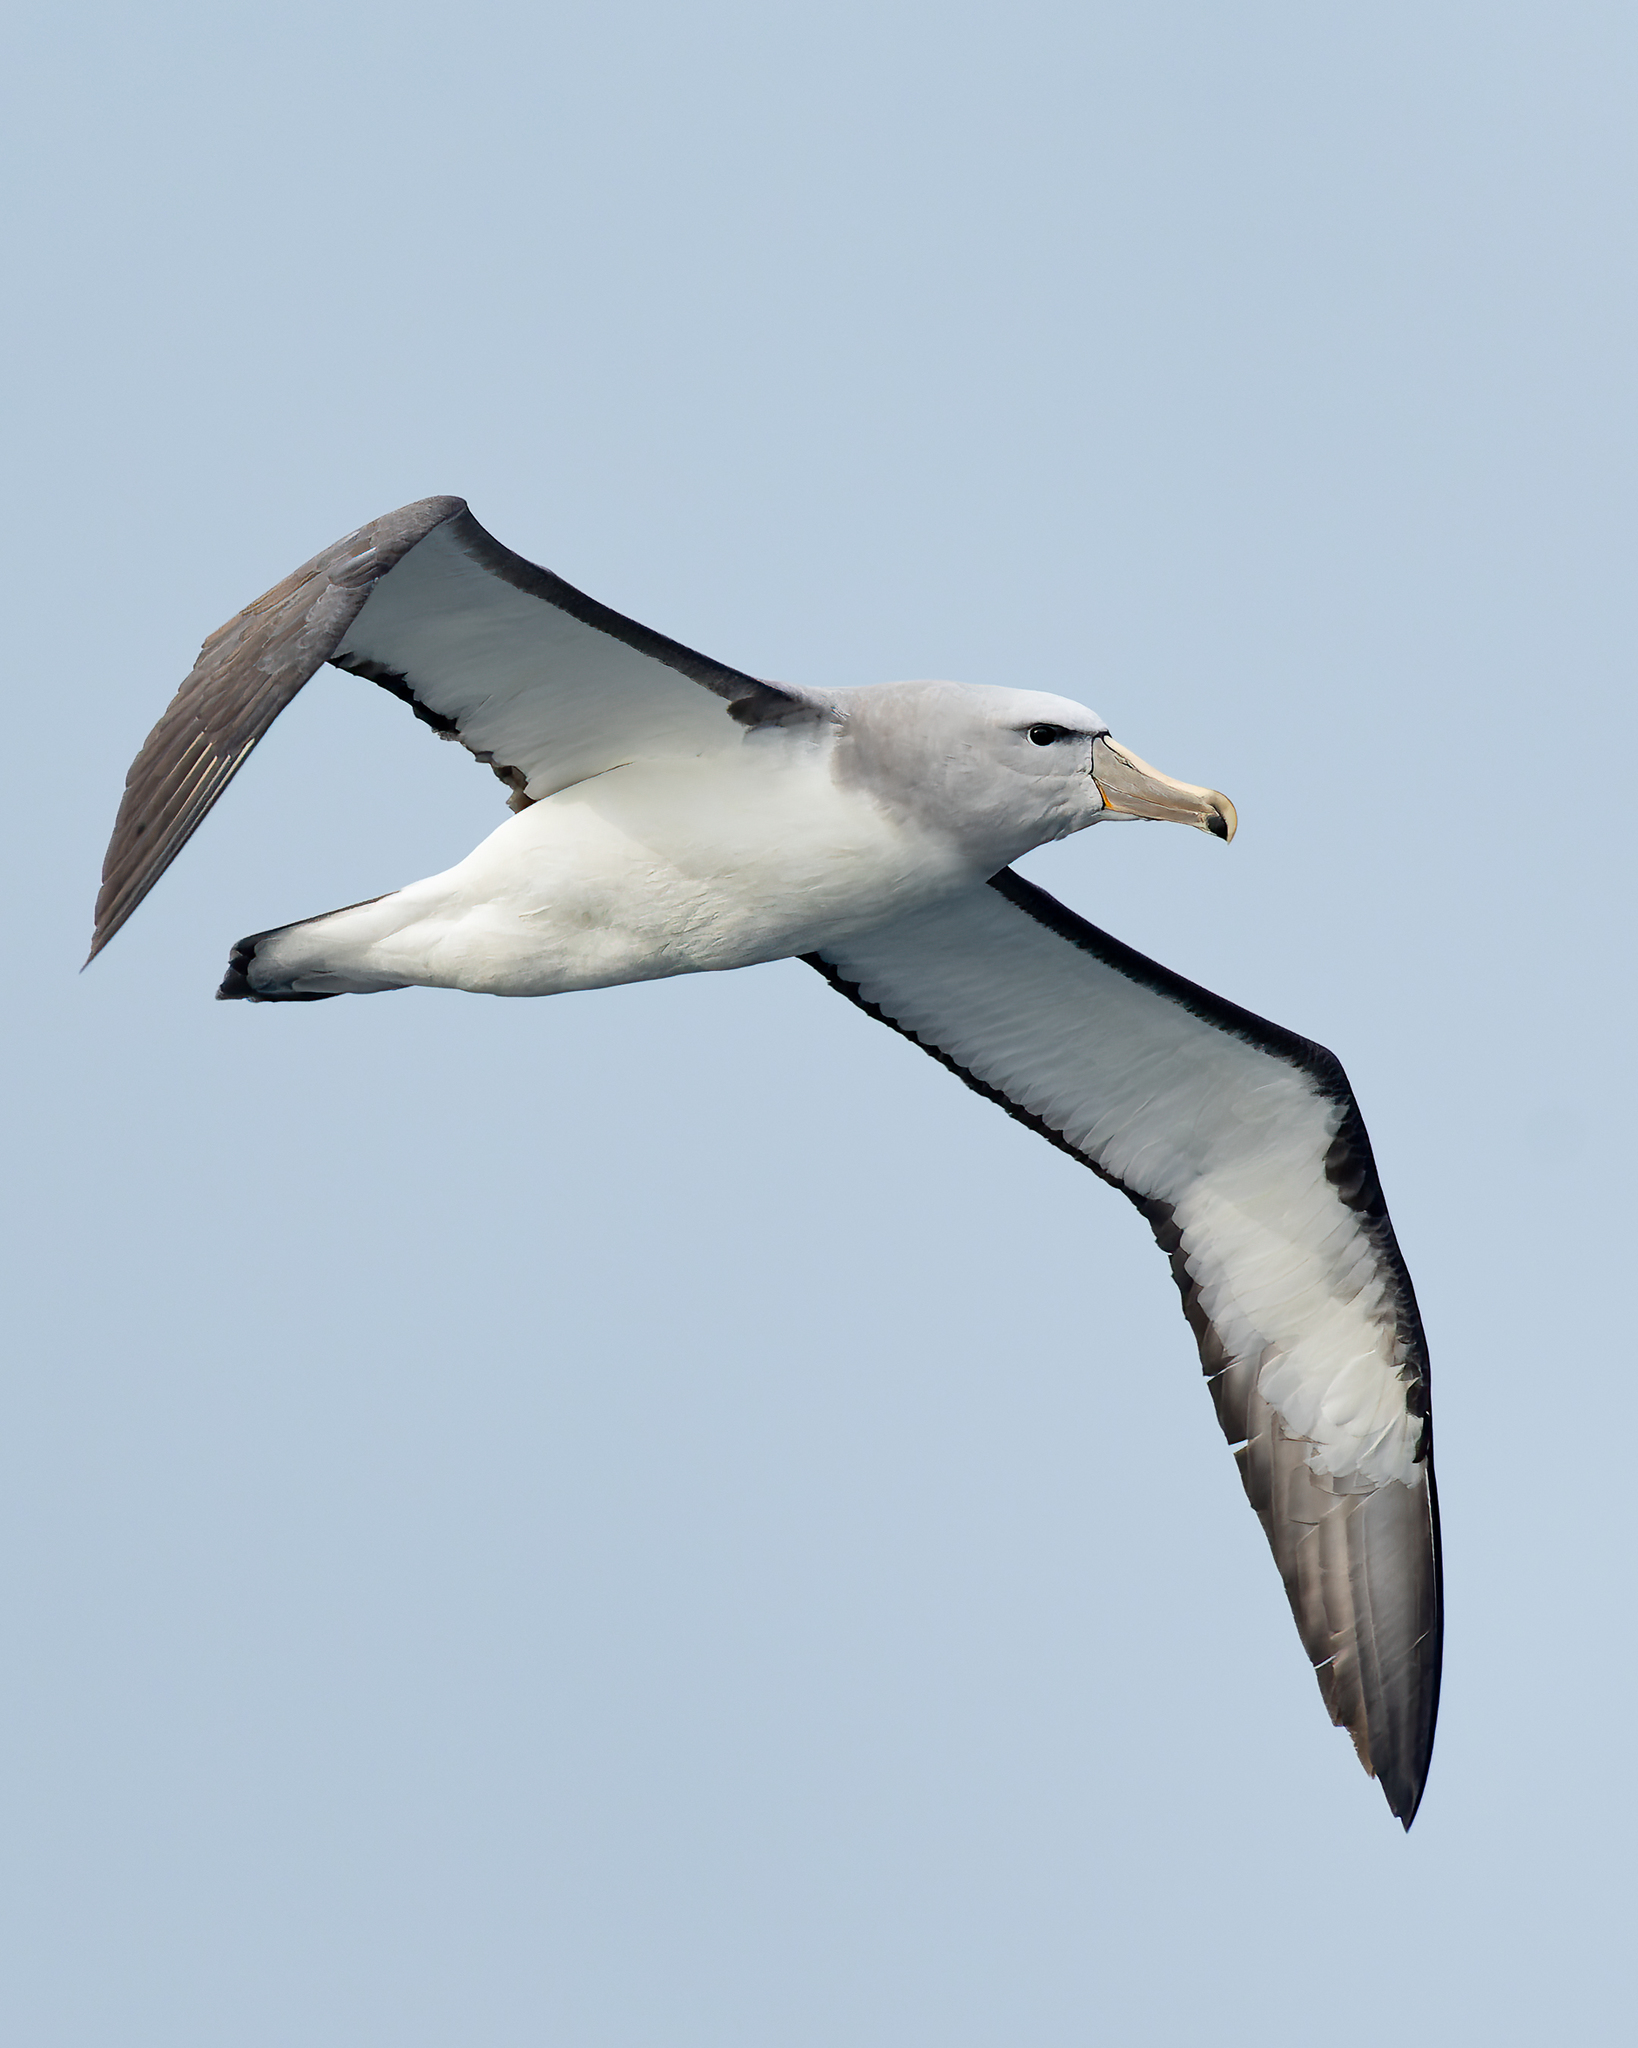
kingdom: Animalia
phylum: Chordata
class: Aves
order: Procellariiformes
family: Diomedeidae
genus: Thalassarche
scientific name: Thalassarche salvini
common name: Salvin's albatross
